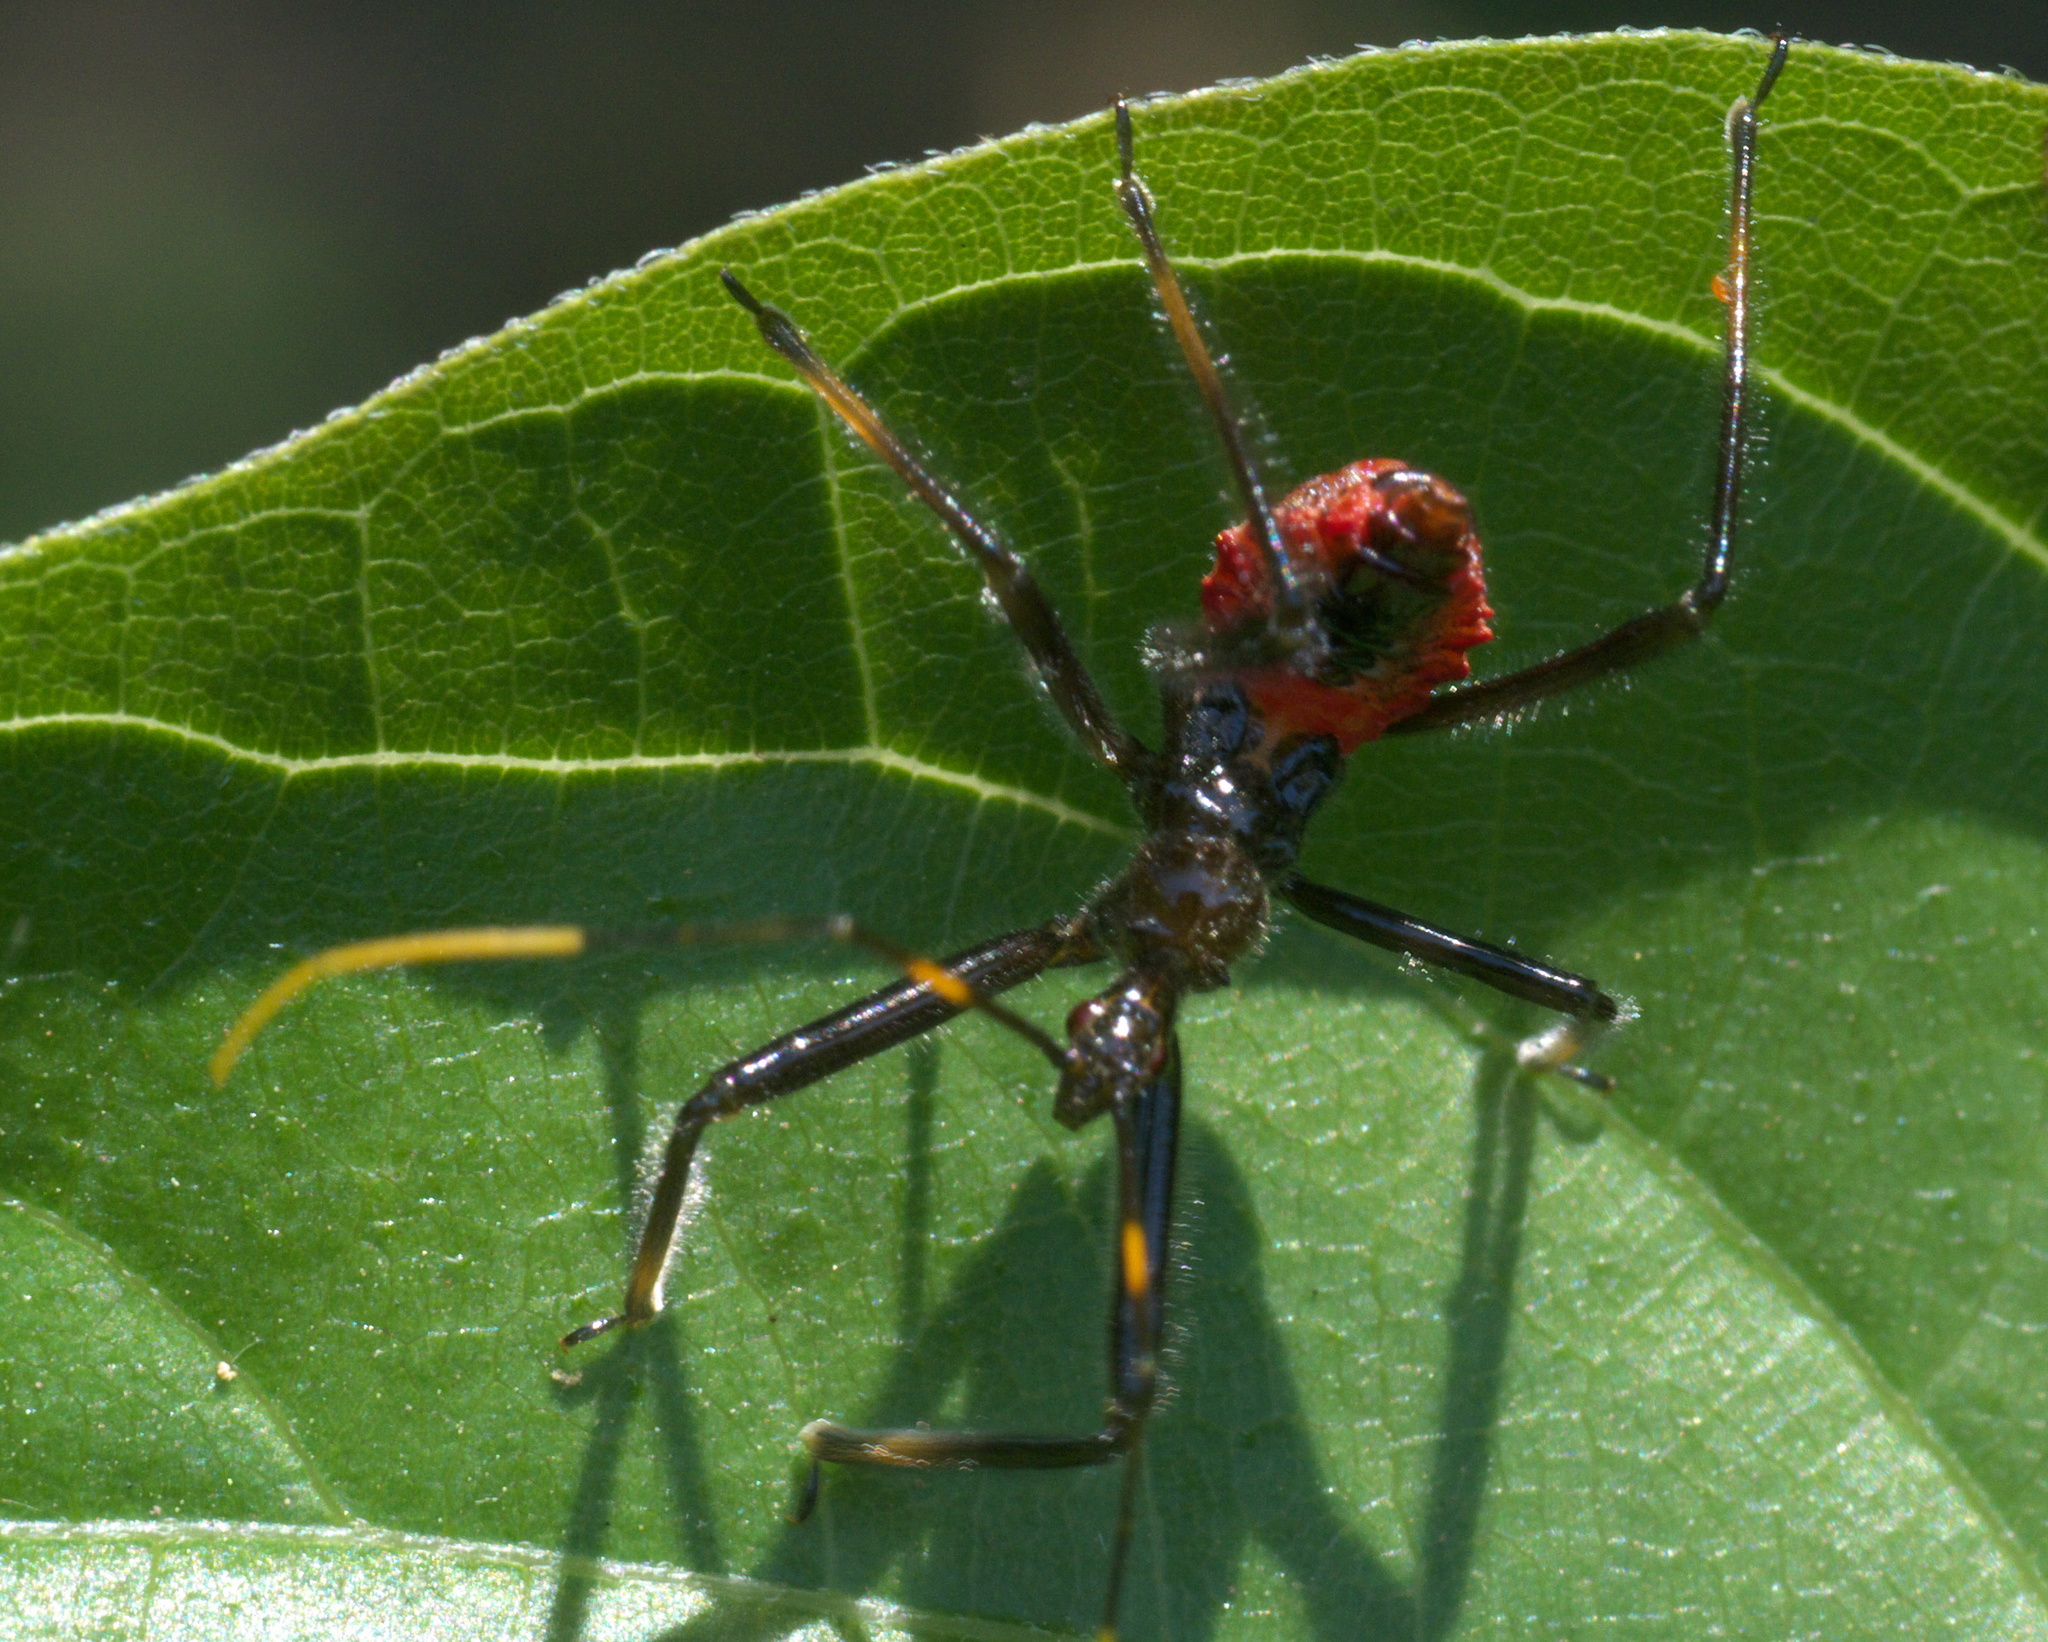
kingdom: Animalia
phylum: Arthropoda
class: Insecta
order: Hemiptera
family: Reduviidae
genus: Arilus
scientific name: Arilus cristatus
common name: North american wheel bug
